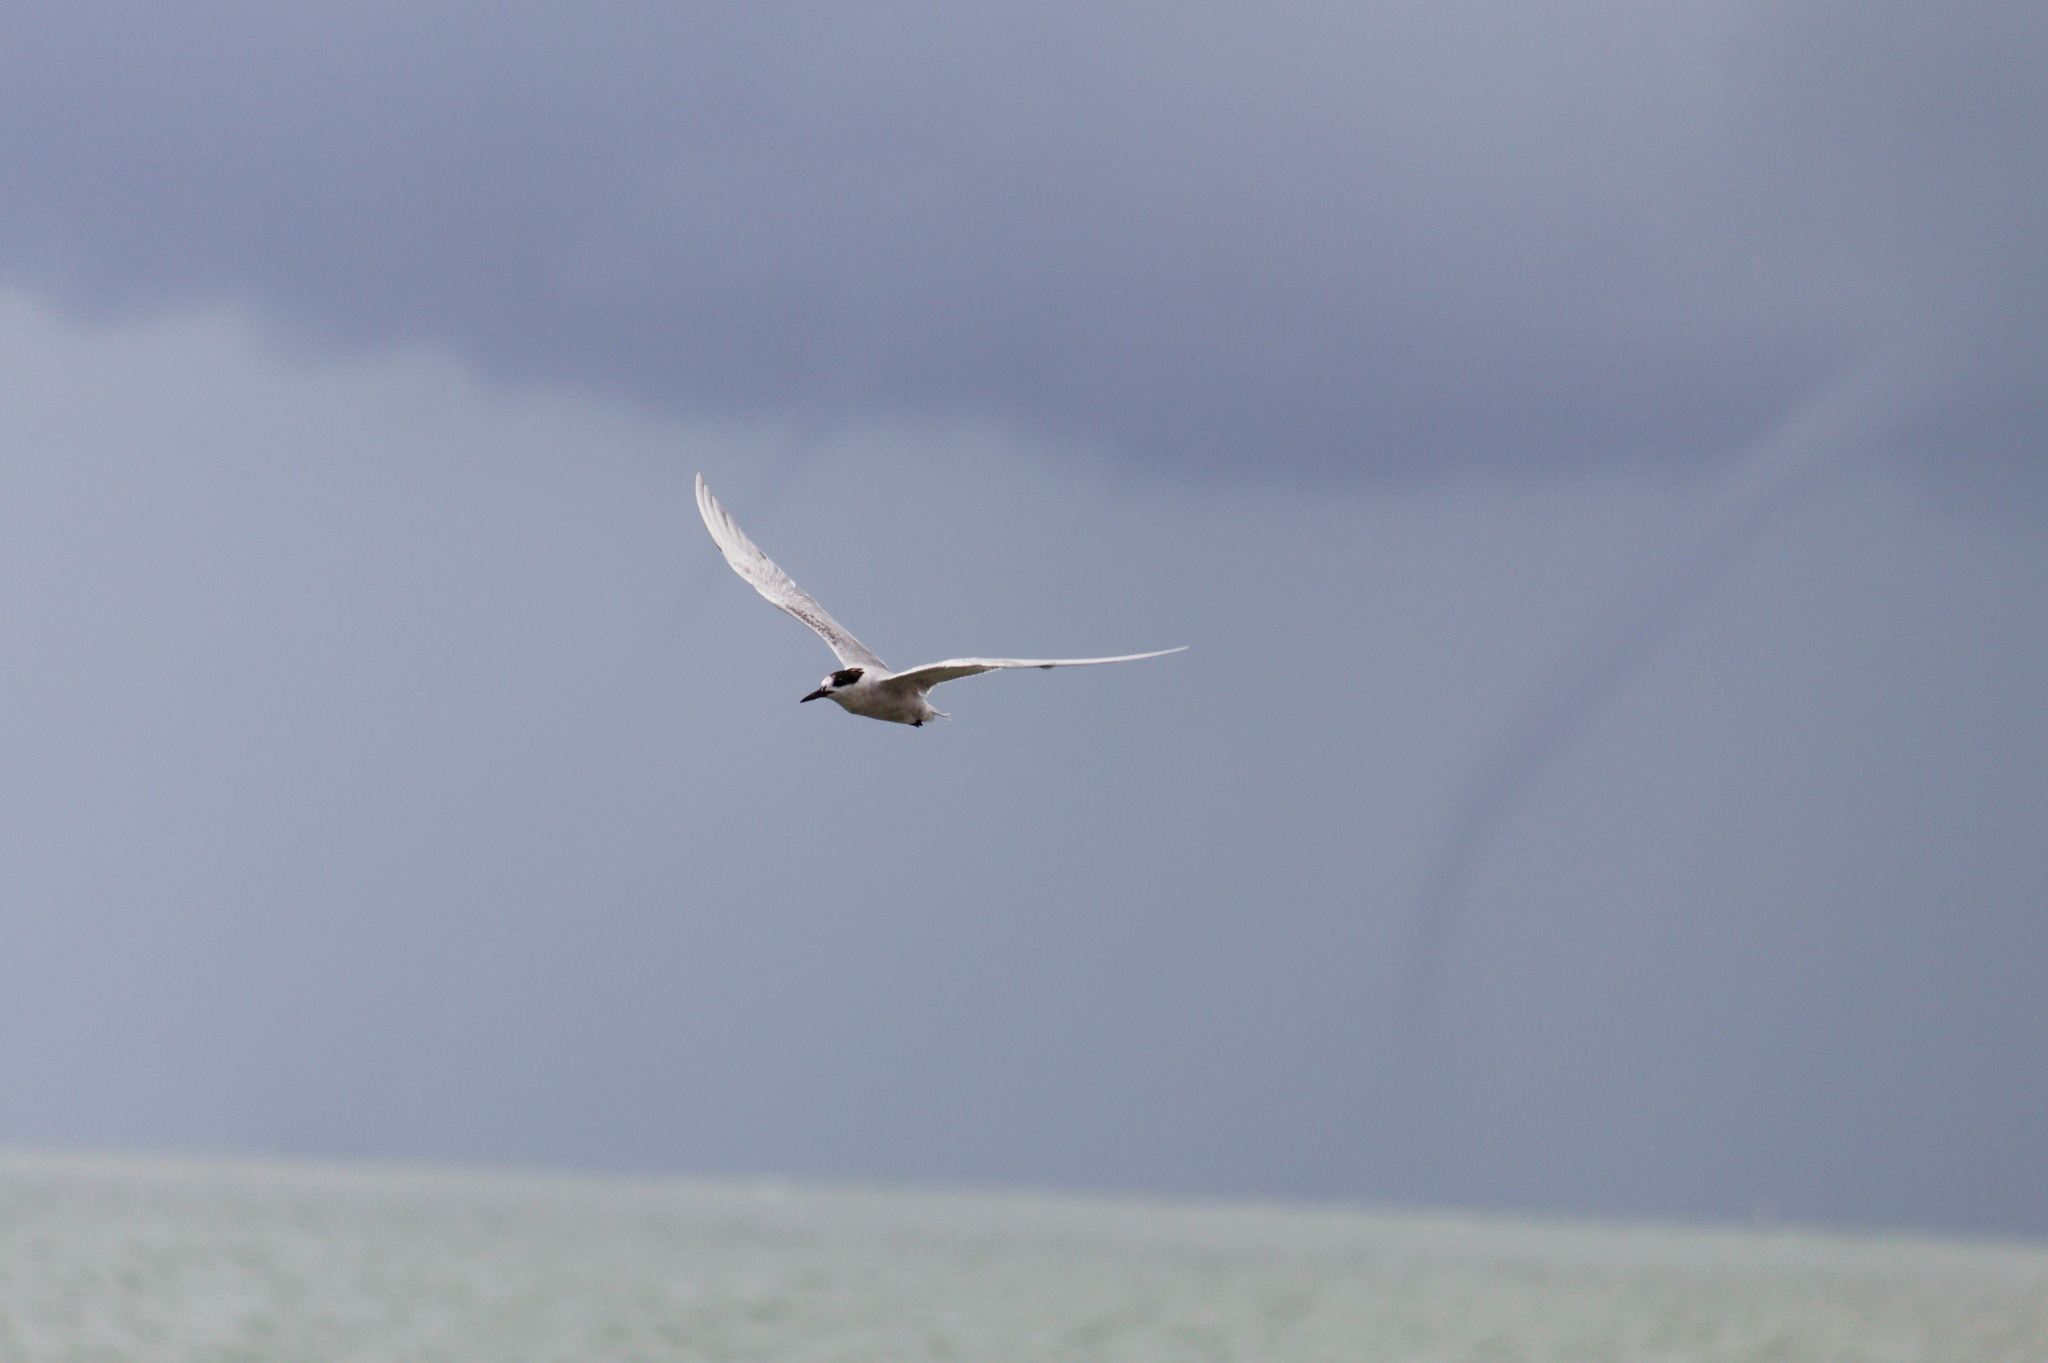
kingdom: Animalia
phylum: Chordata
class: Aves
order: Charadriiformes
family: Laridae
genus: Sterna
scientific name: Sterna hirundo
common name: Common tern
